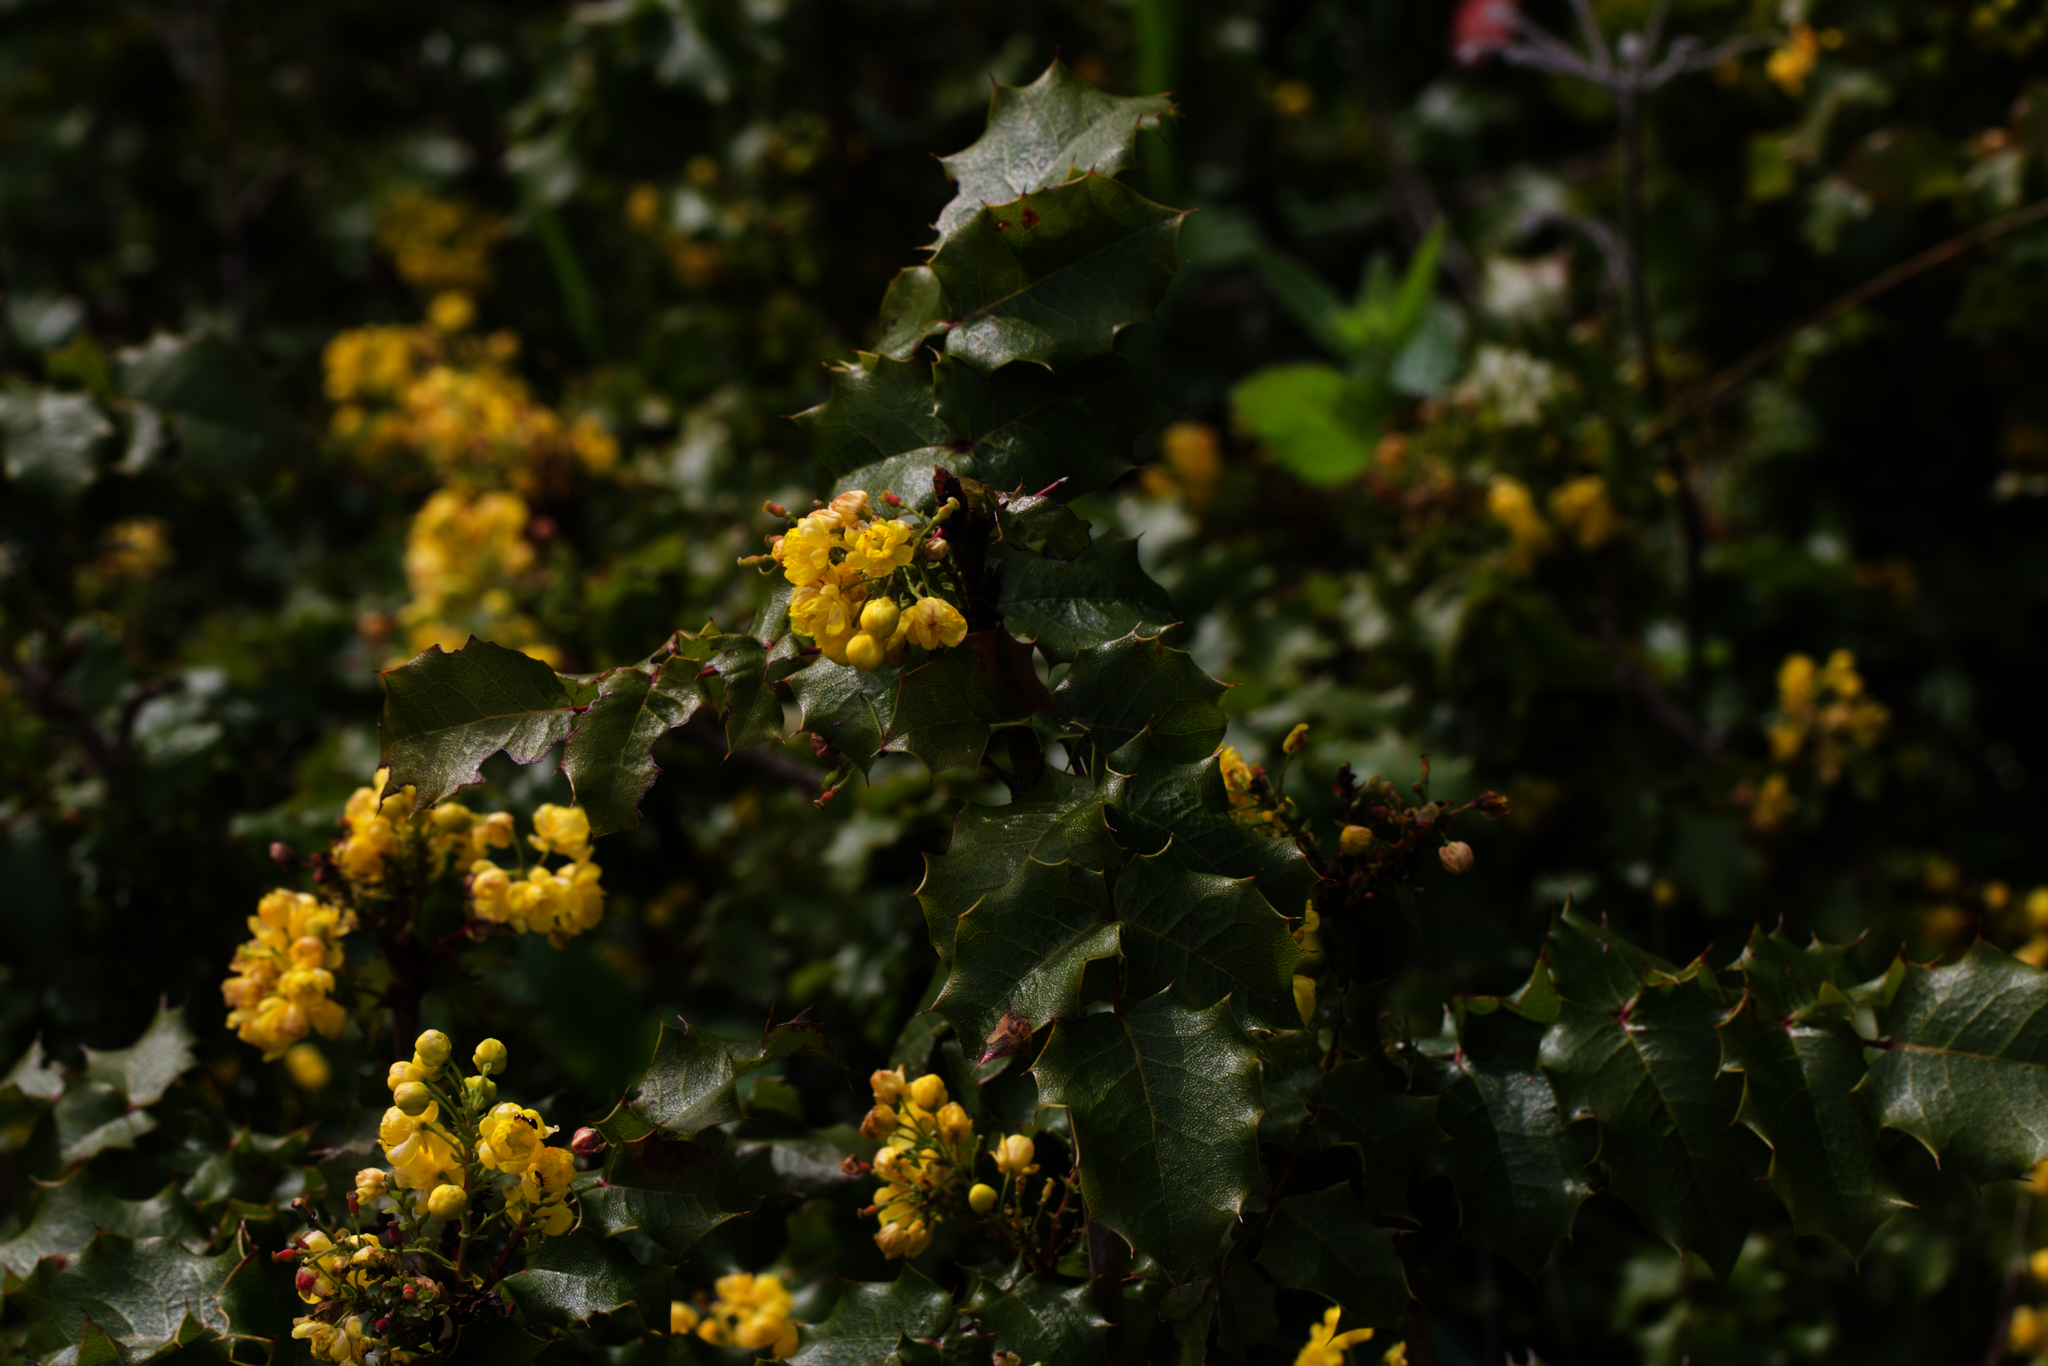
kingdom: Plantae
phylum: Tracheophyta
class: Magnoliopsida
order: Ranunculales
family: Berberidaceae
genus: Mahonia
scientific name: Mahonia
